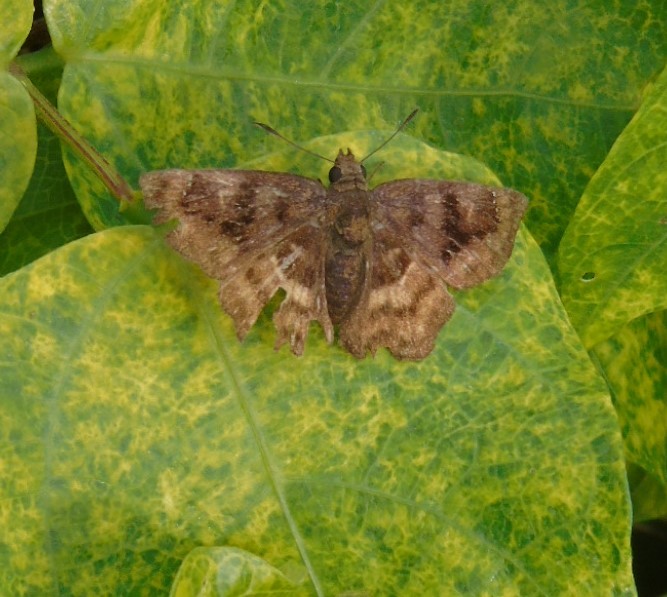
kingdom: Animalia
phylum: Arthropoda
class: Insecta
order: Lepidoptera
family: Hesperiidae
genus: Nisoniades
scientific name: Nisoniades
